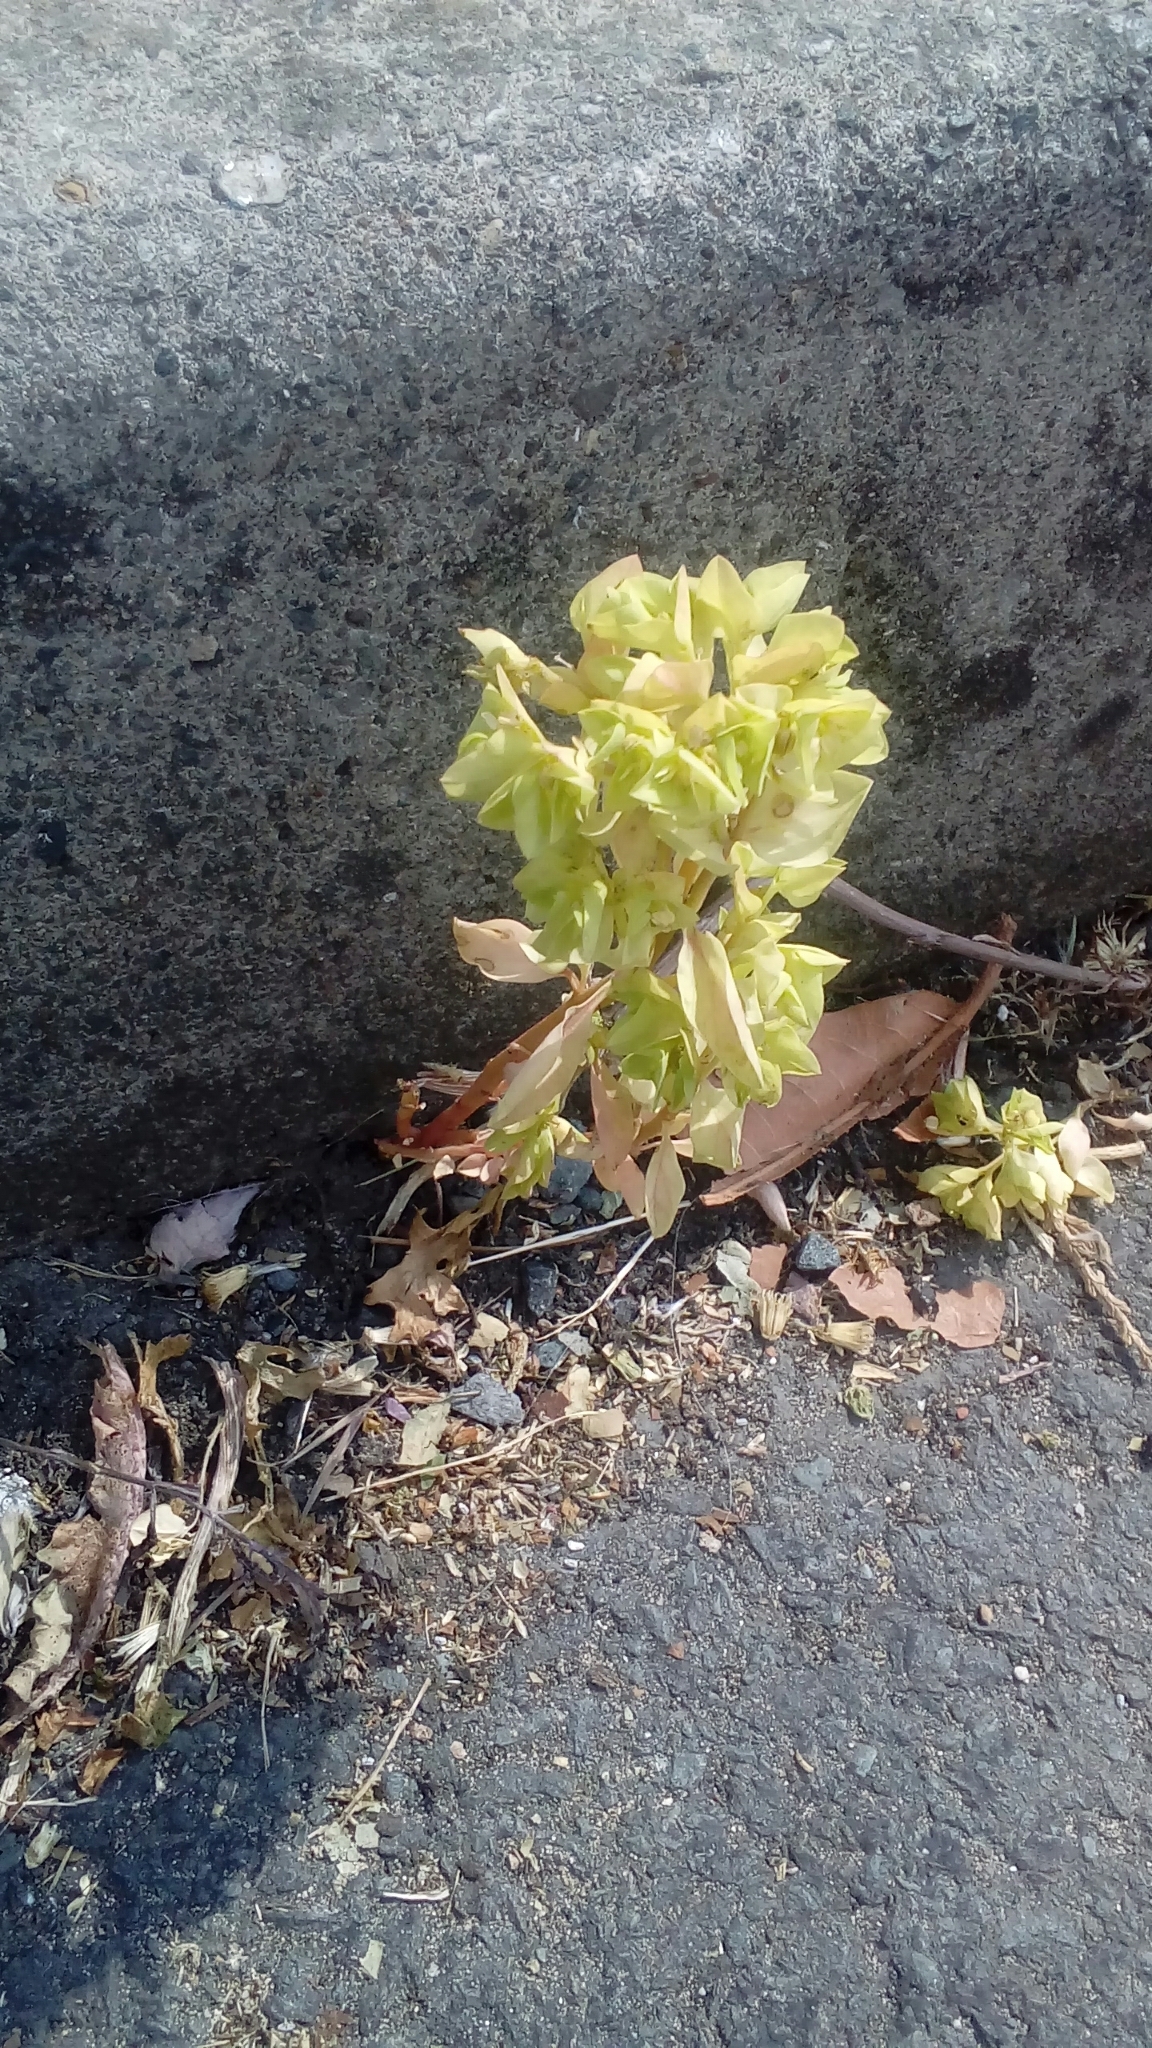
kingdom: Plantae
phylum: Tracheophyta
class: Magnoliopsida
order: Malpighiales
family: Euphorbiaceae
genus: Euphorbia
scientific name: Euphorbia peplus
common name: Petty spurge
